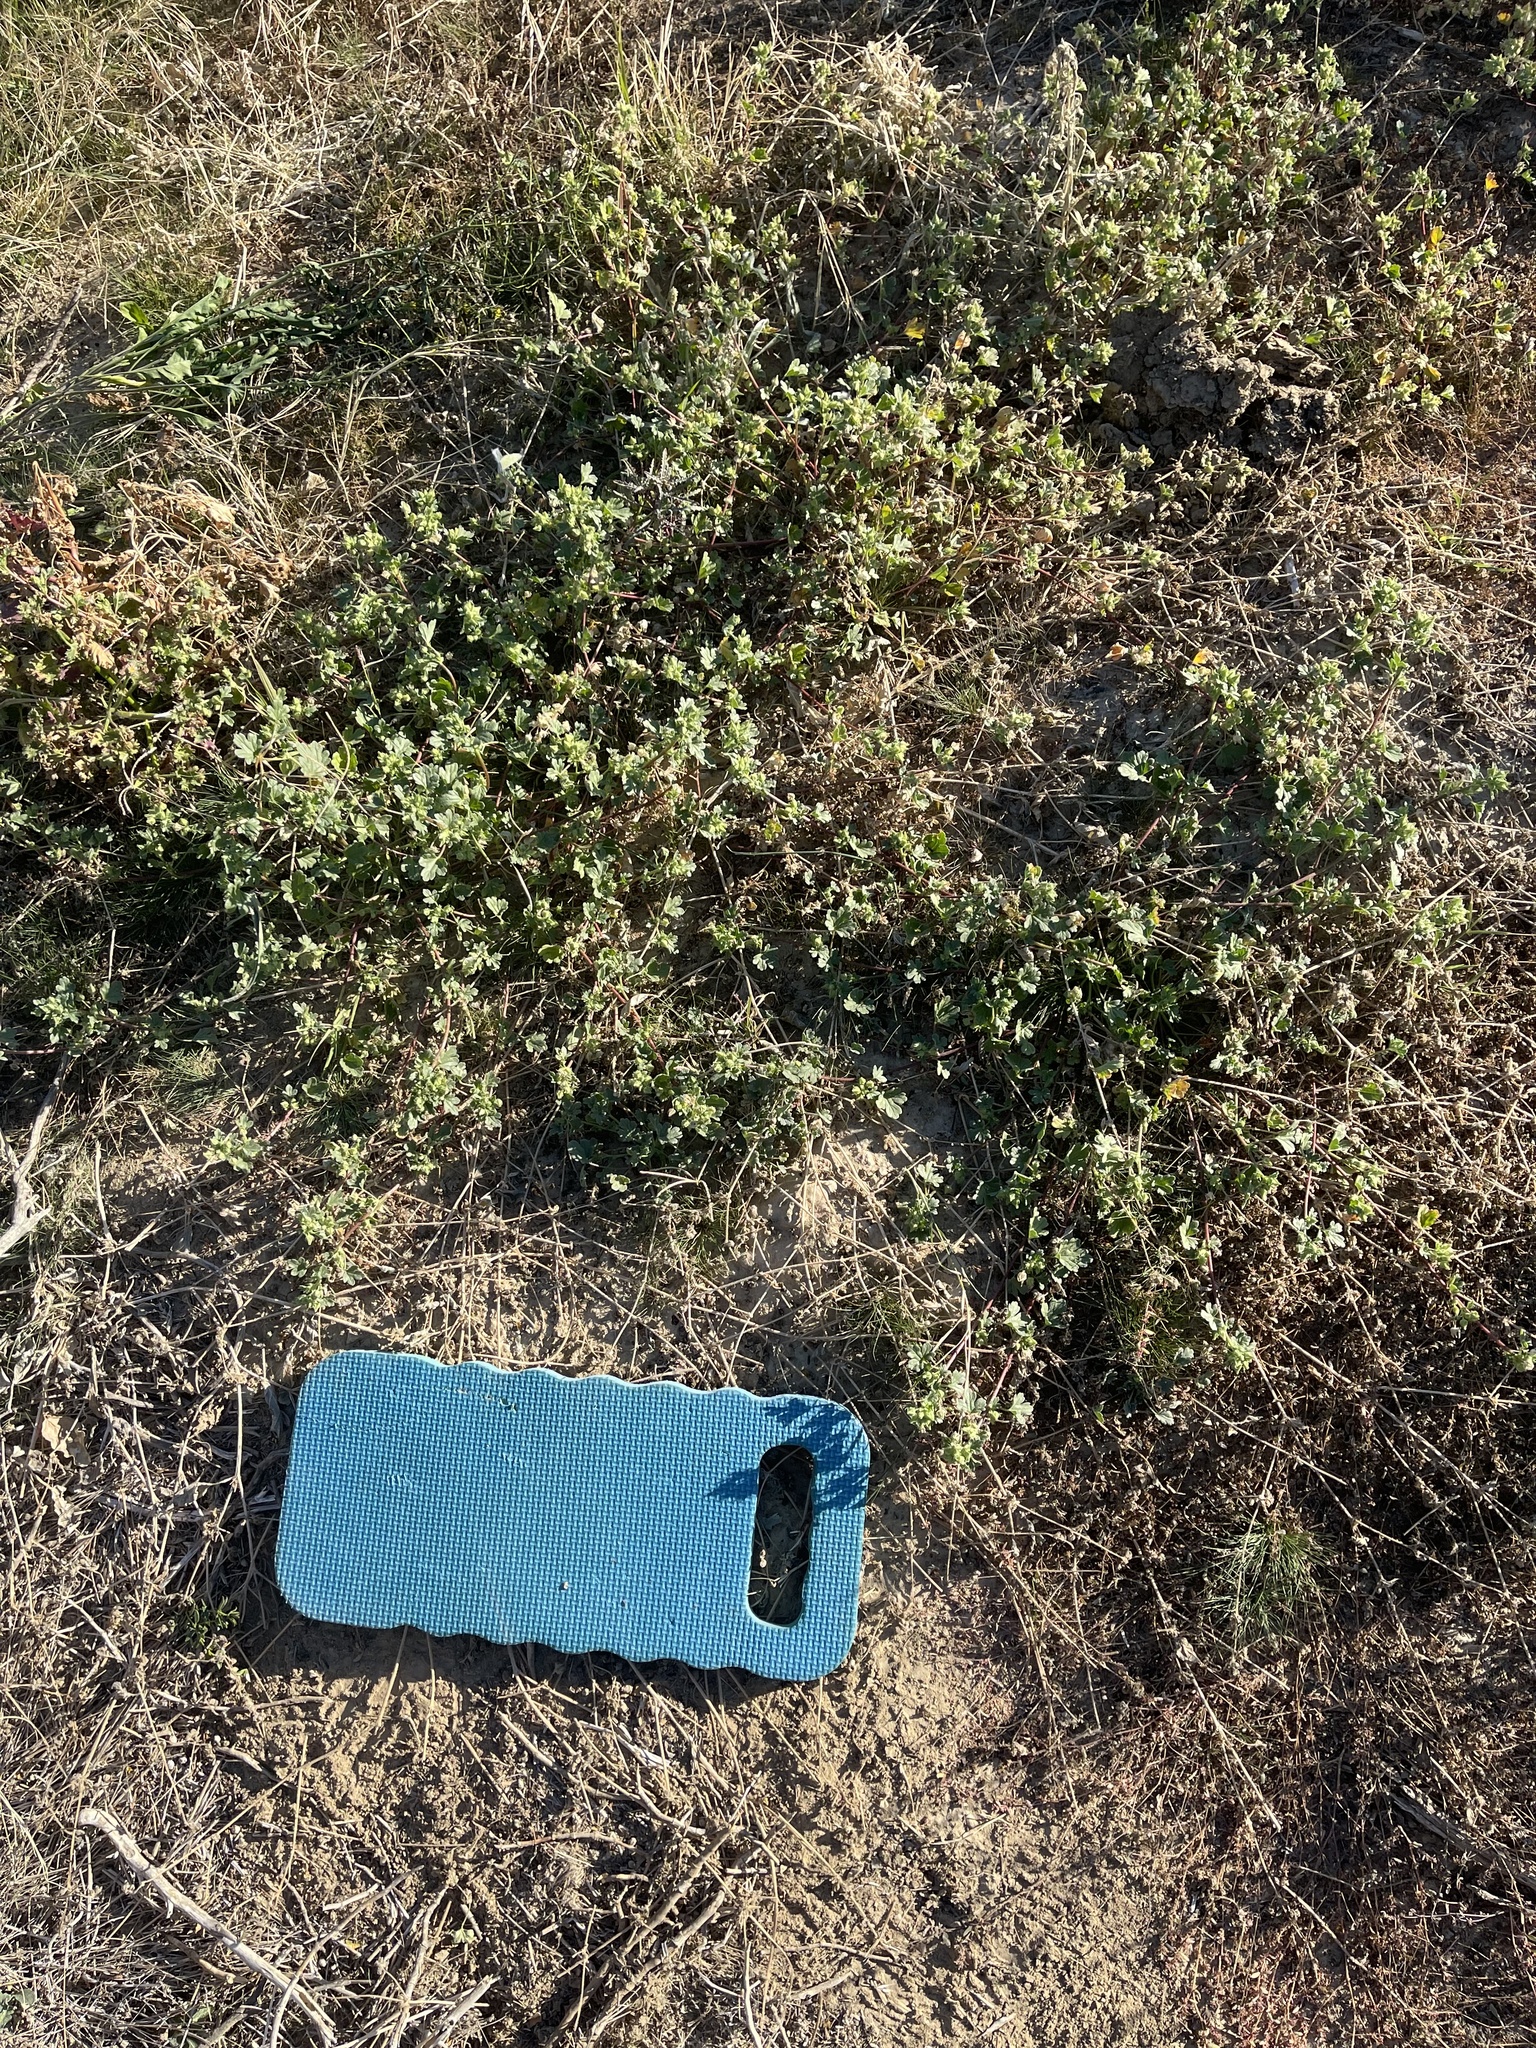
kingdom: Plantae
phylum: Tracheophyta
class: Magnoliopsida
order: Malvales
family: Malvaceae
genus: Eremalche
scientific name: Eremalche exilis
